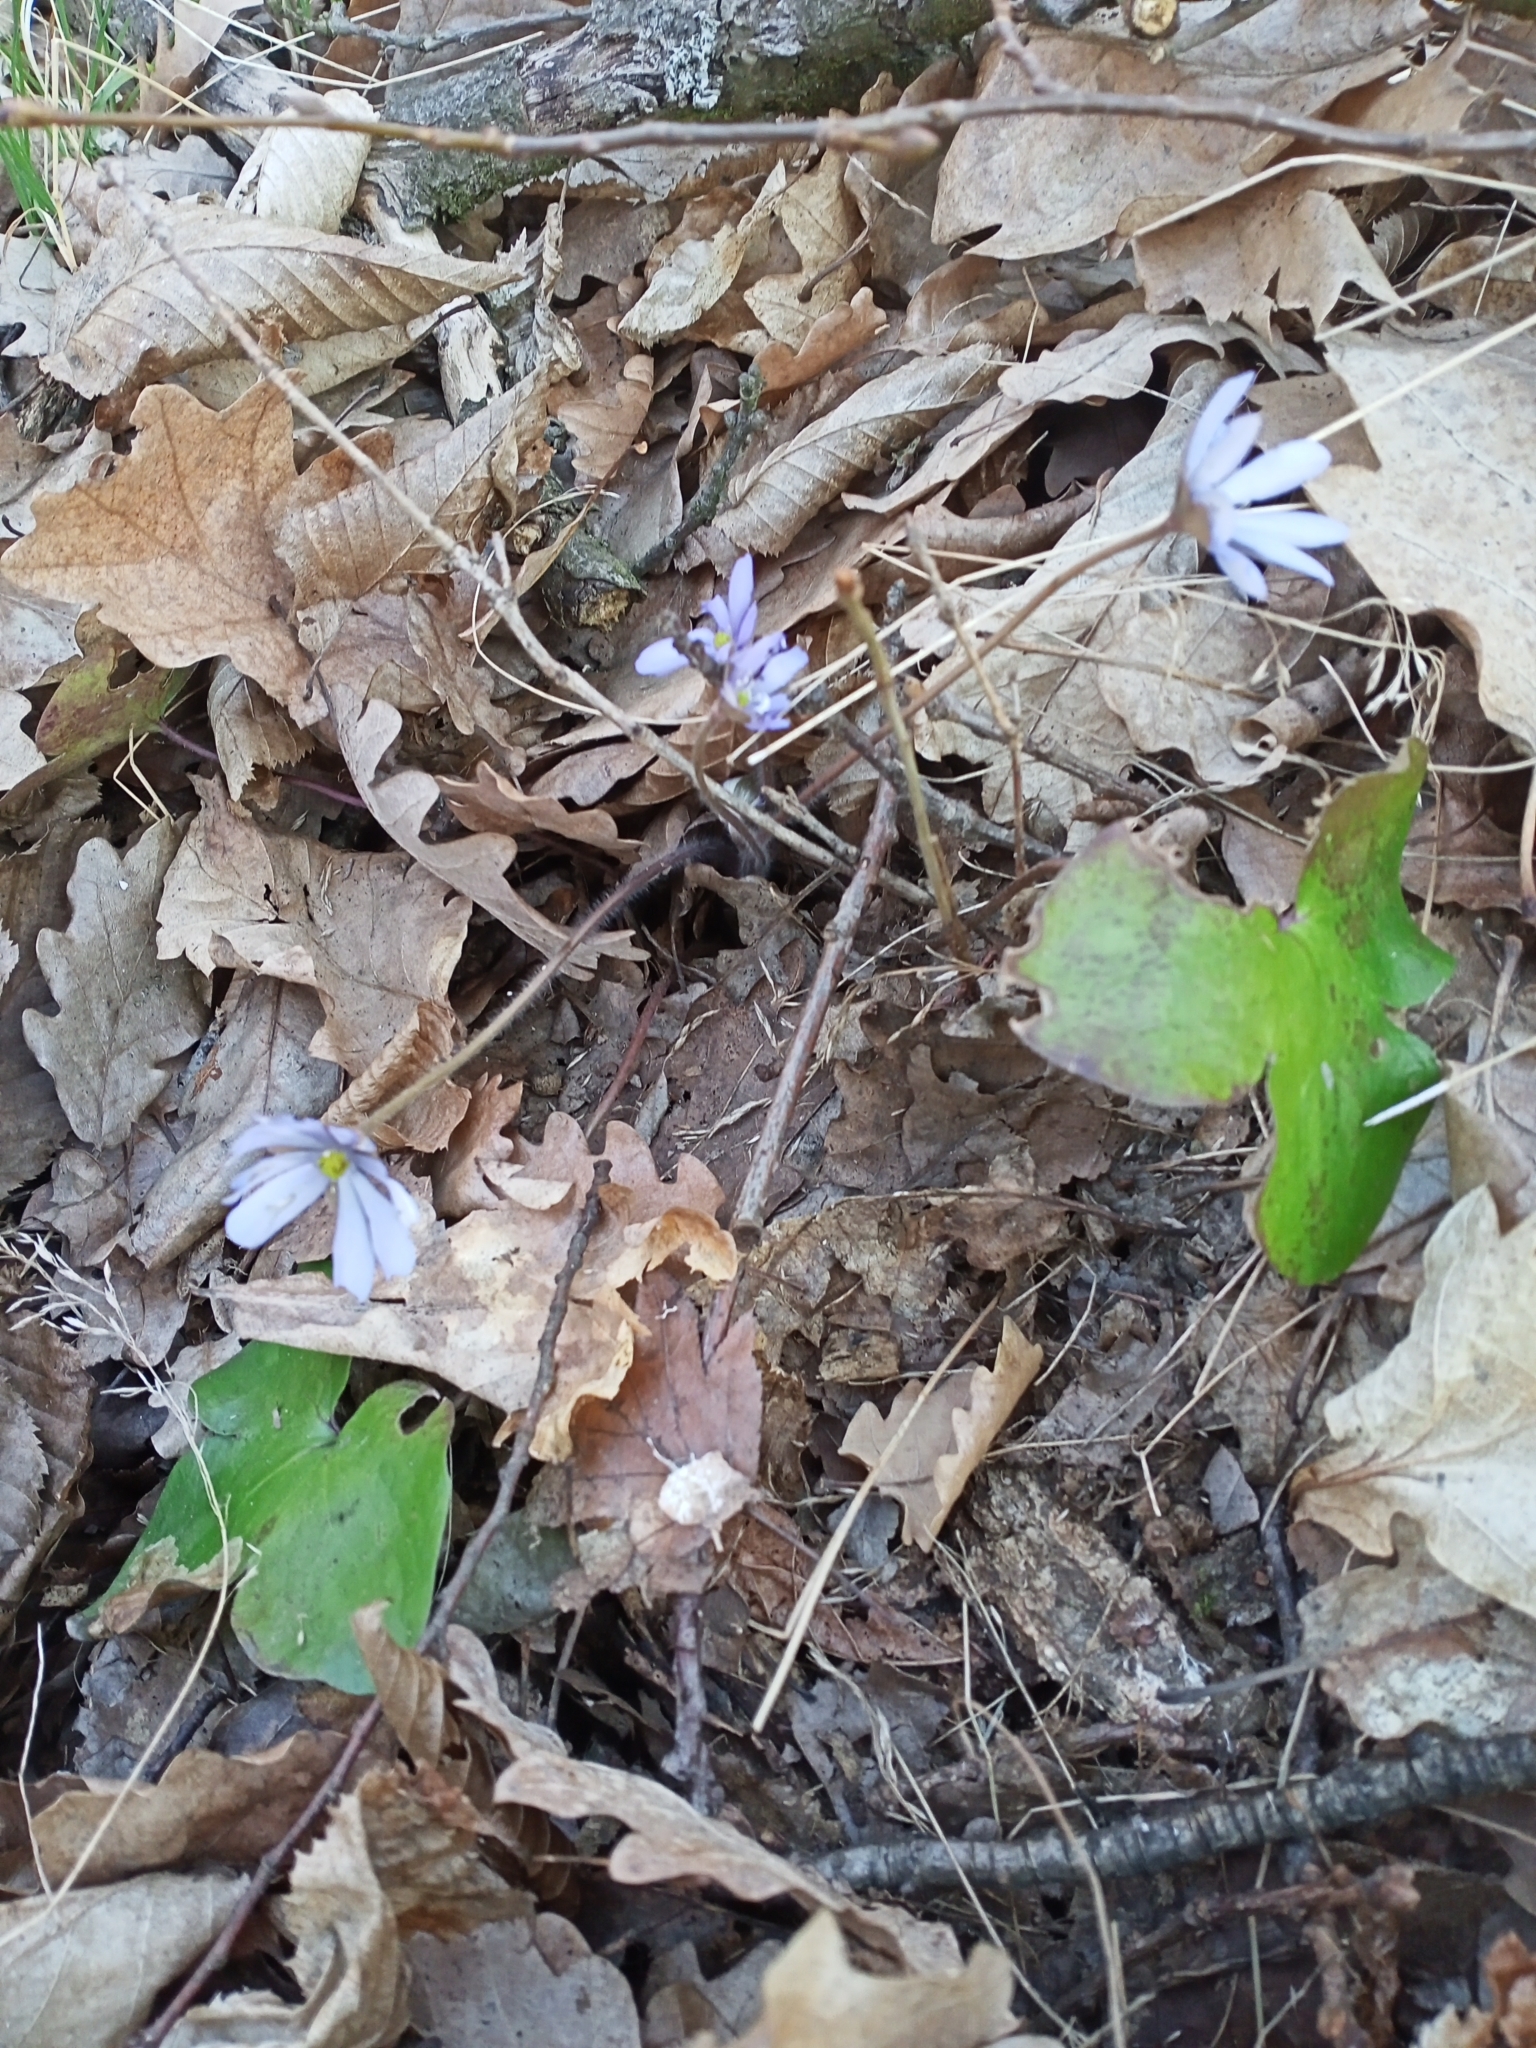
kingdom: Plantae
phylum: Tracheophyta
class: Magnoliopsida
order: Ranunculales
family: Ranunculaceae
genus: Hepatica
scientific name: Hepatica nobilis
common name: Liverleaf
